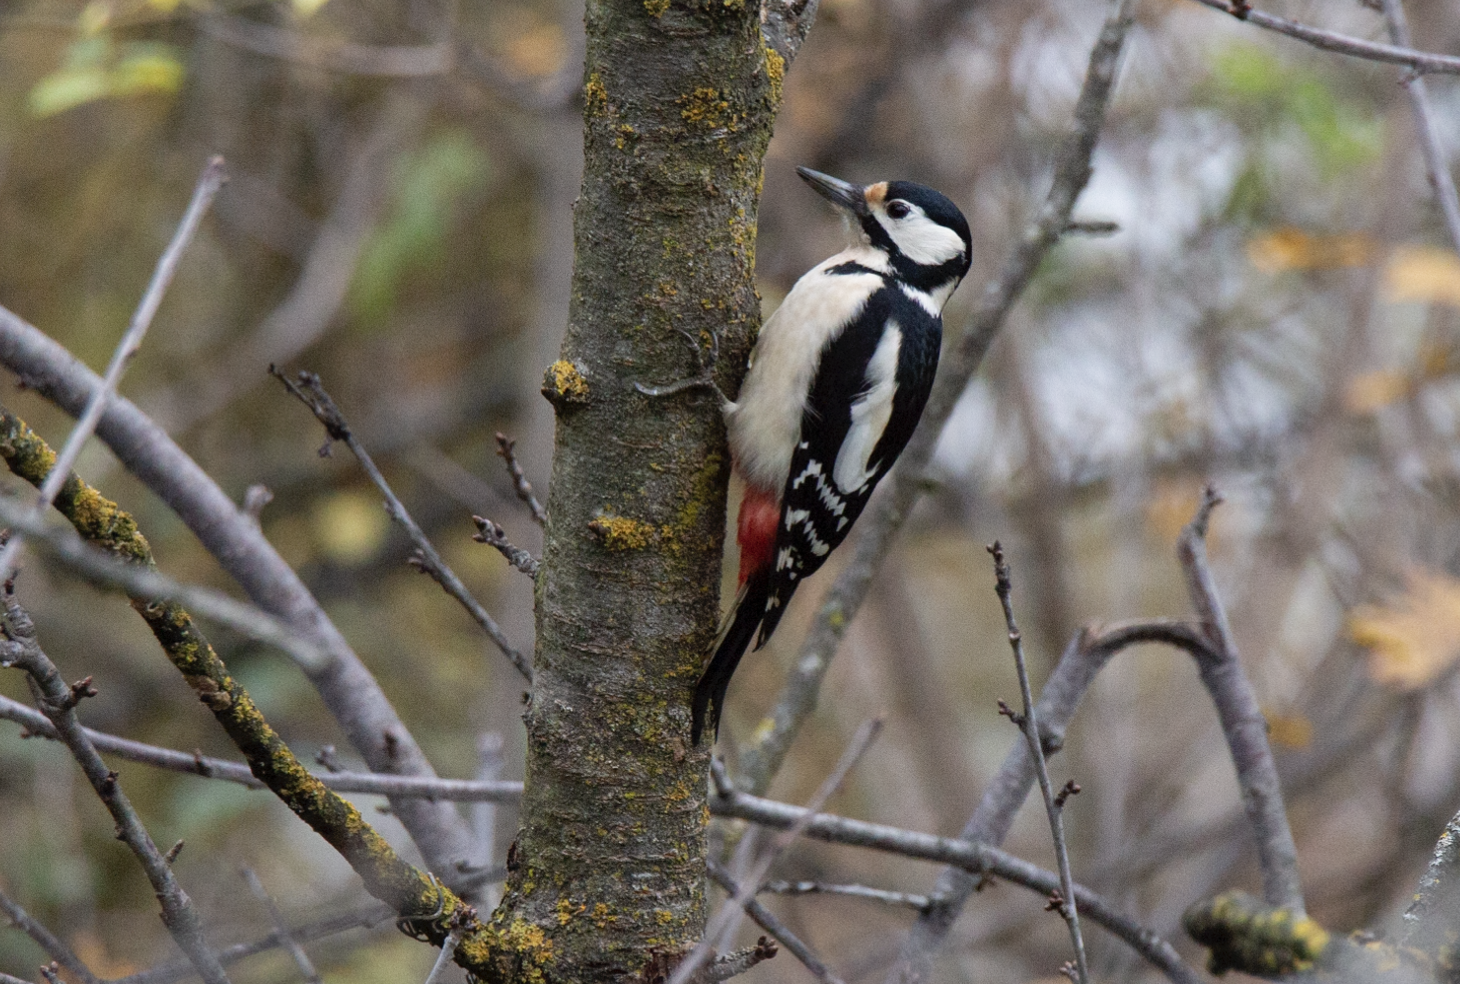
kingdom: Animalia
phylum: Chordata
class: Aves
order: Piciformes
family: Picidae
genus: Dendrocopos
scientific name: Dendrocopos major
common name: Great spotted woodpecker
